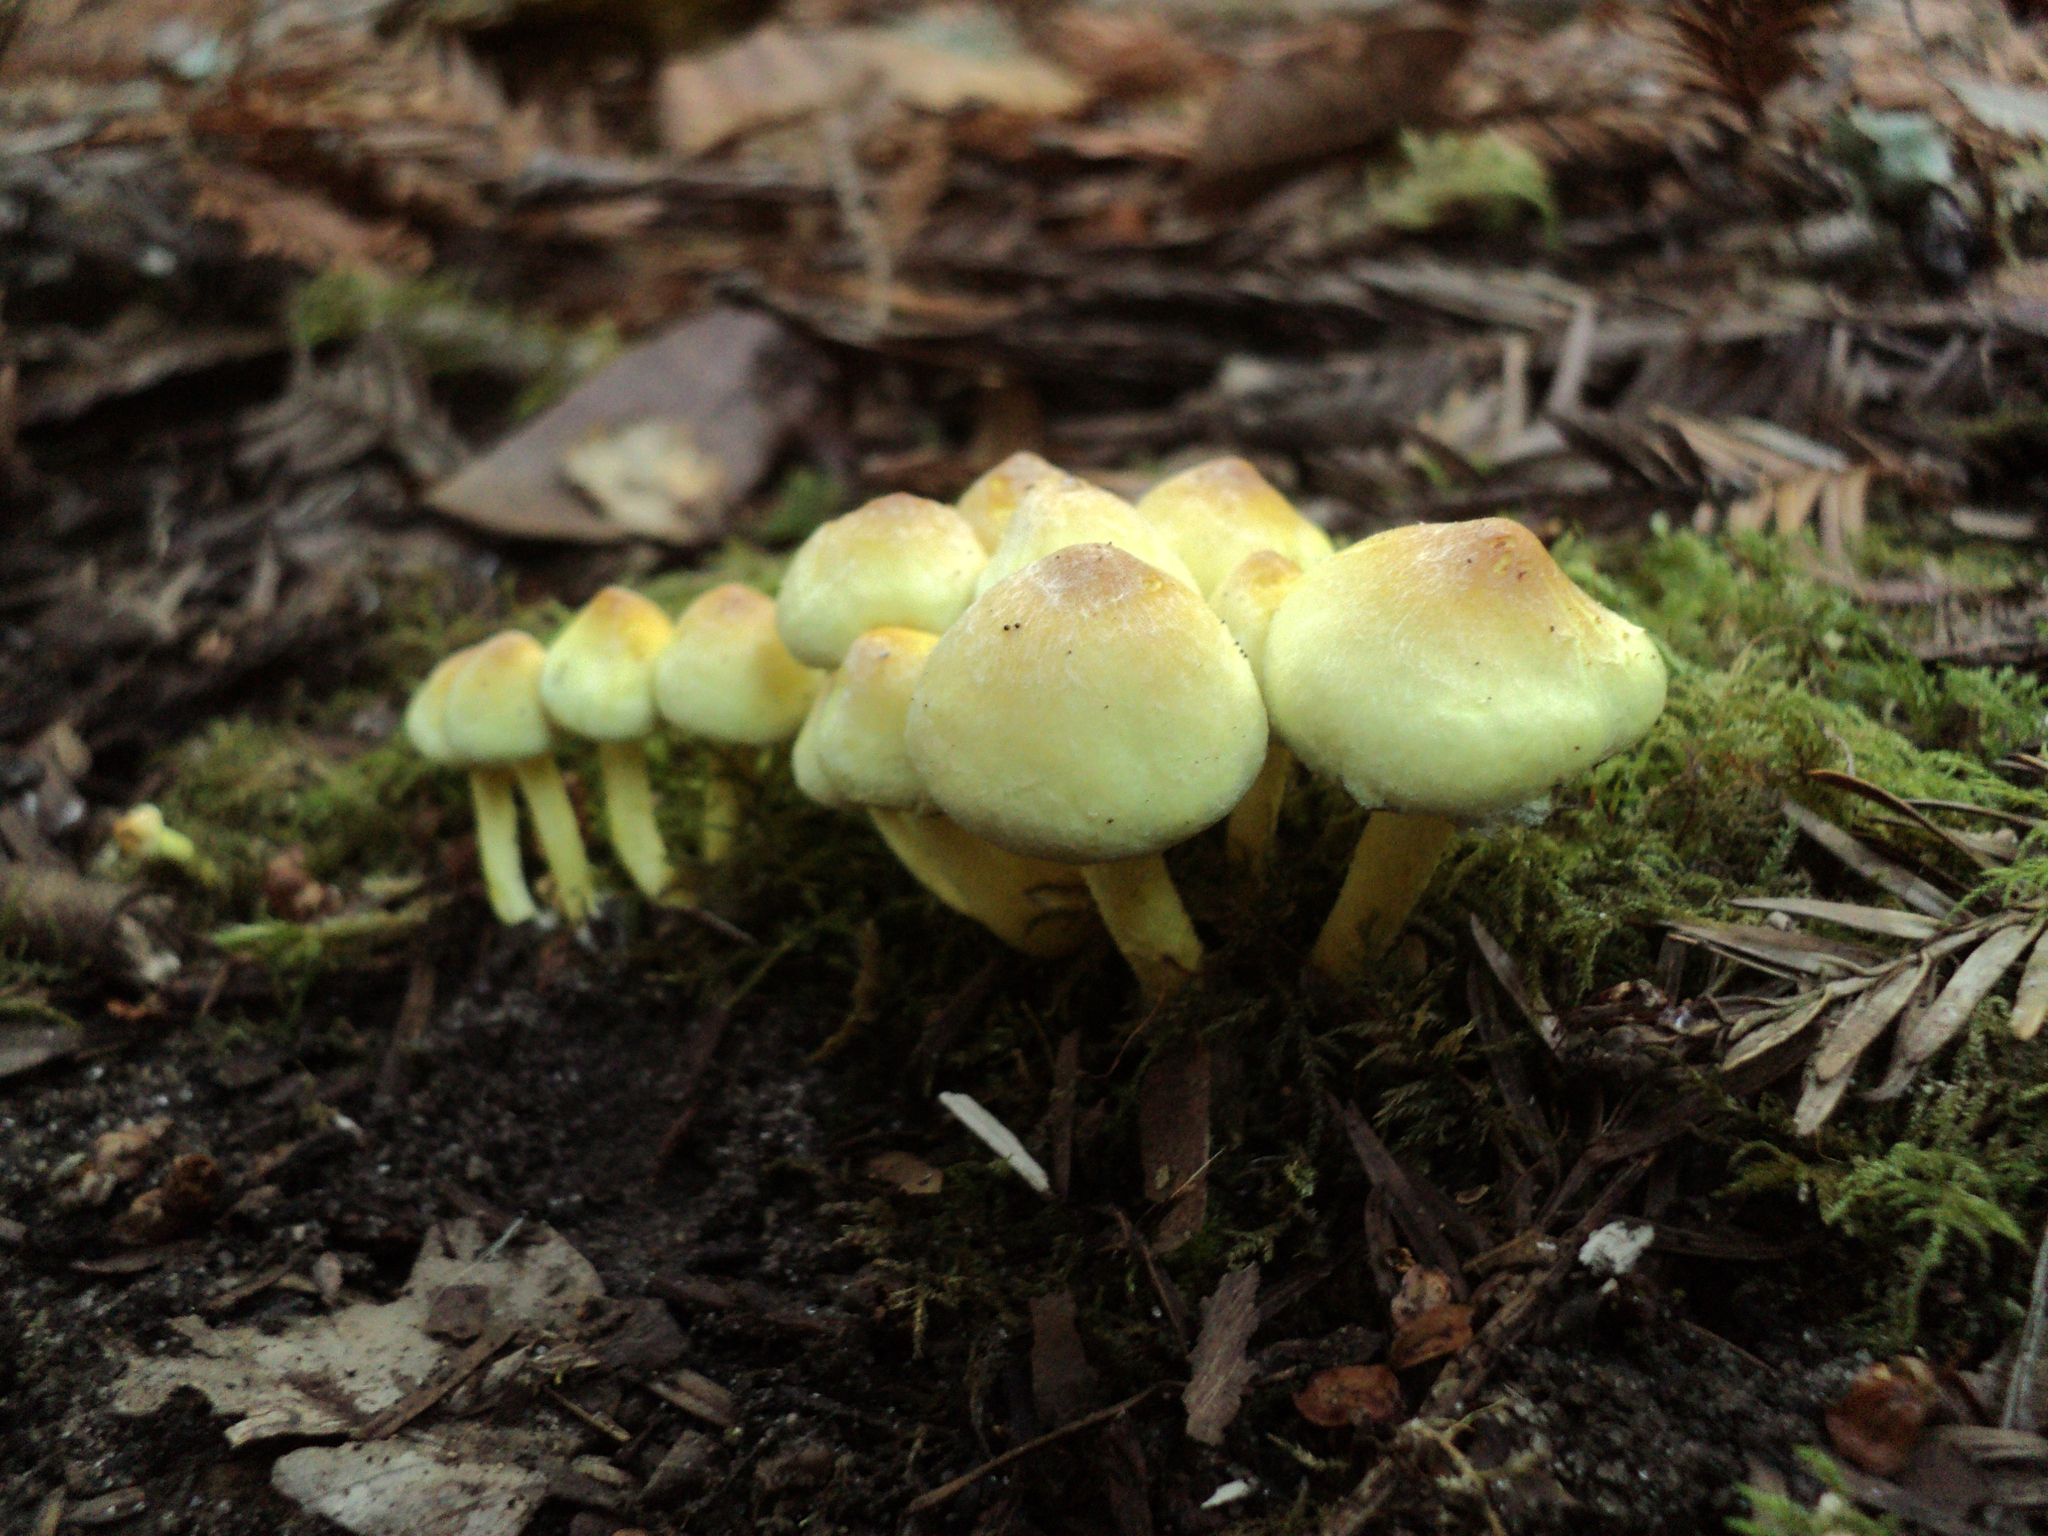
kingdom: Fungi
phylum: Basidiomycota
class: Agaricomycetes
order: Agaricales
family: Strophariaceae
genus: Hypholoma
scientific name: Hypholoma fasciculare
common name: Sulphur tuft
